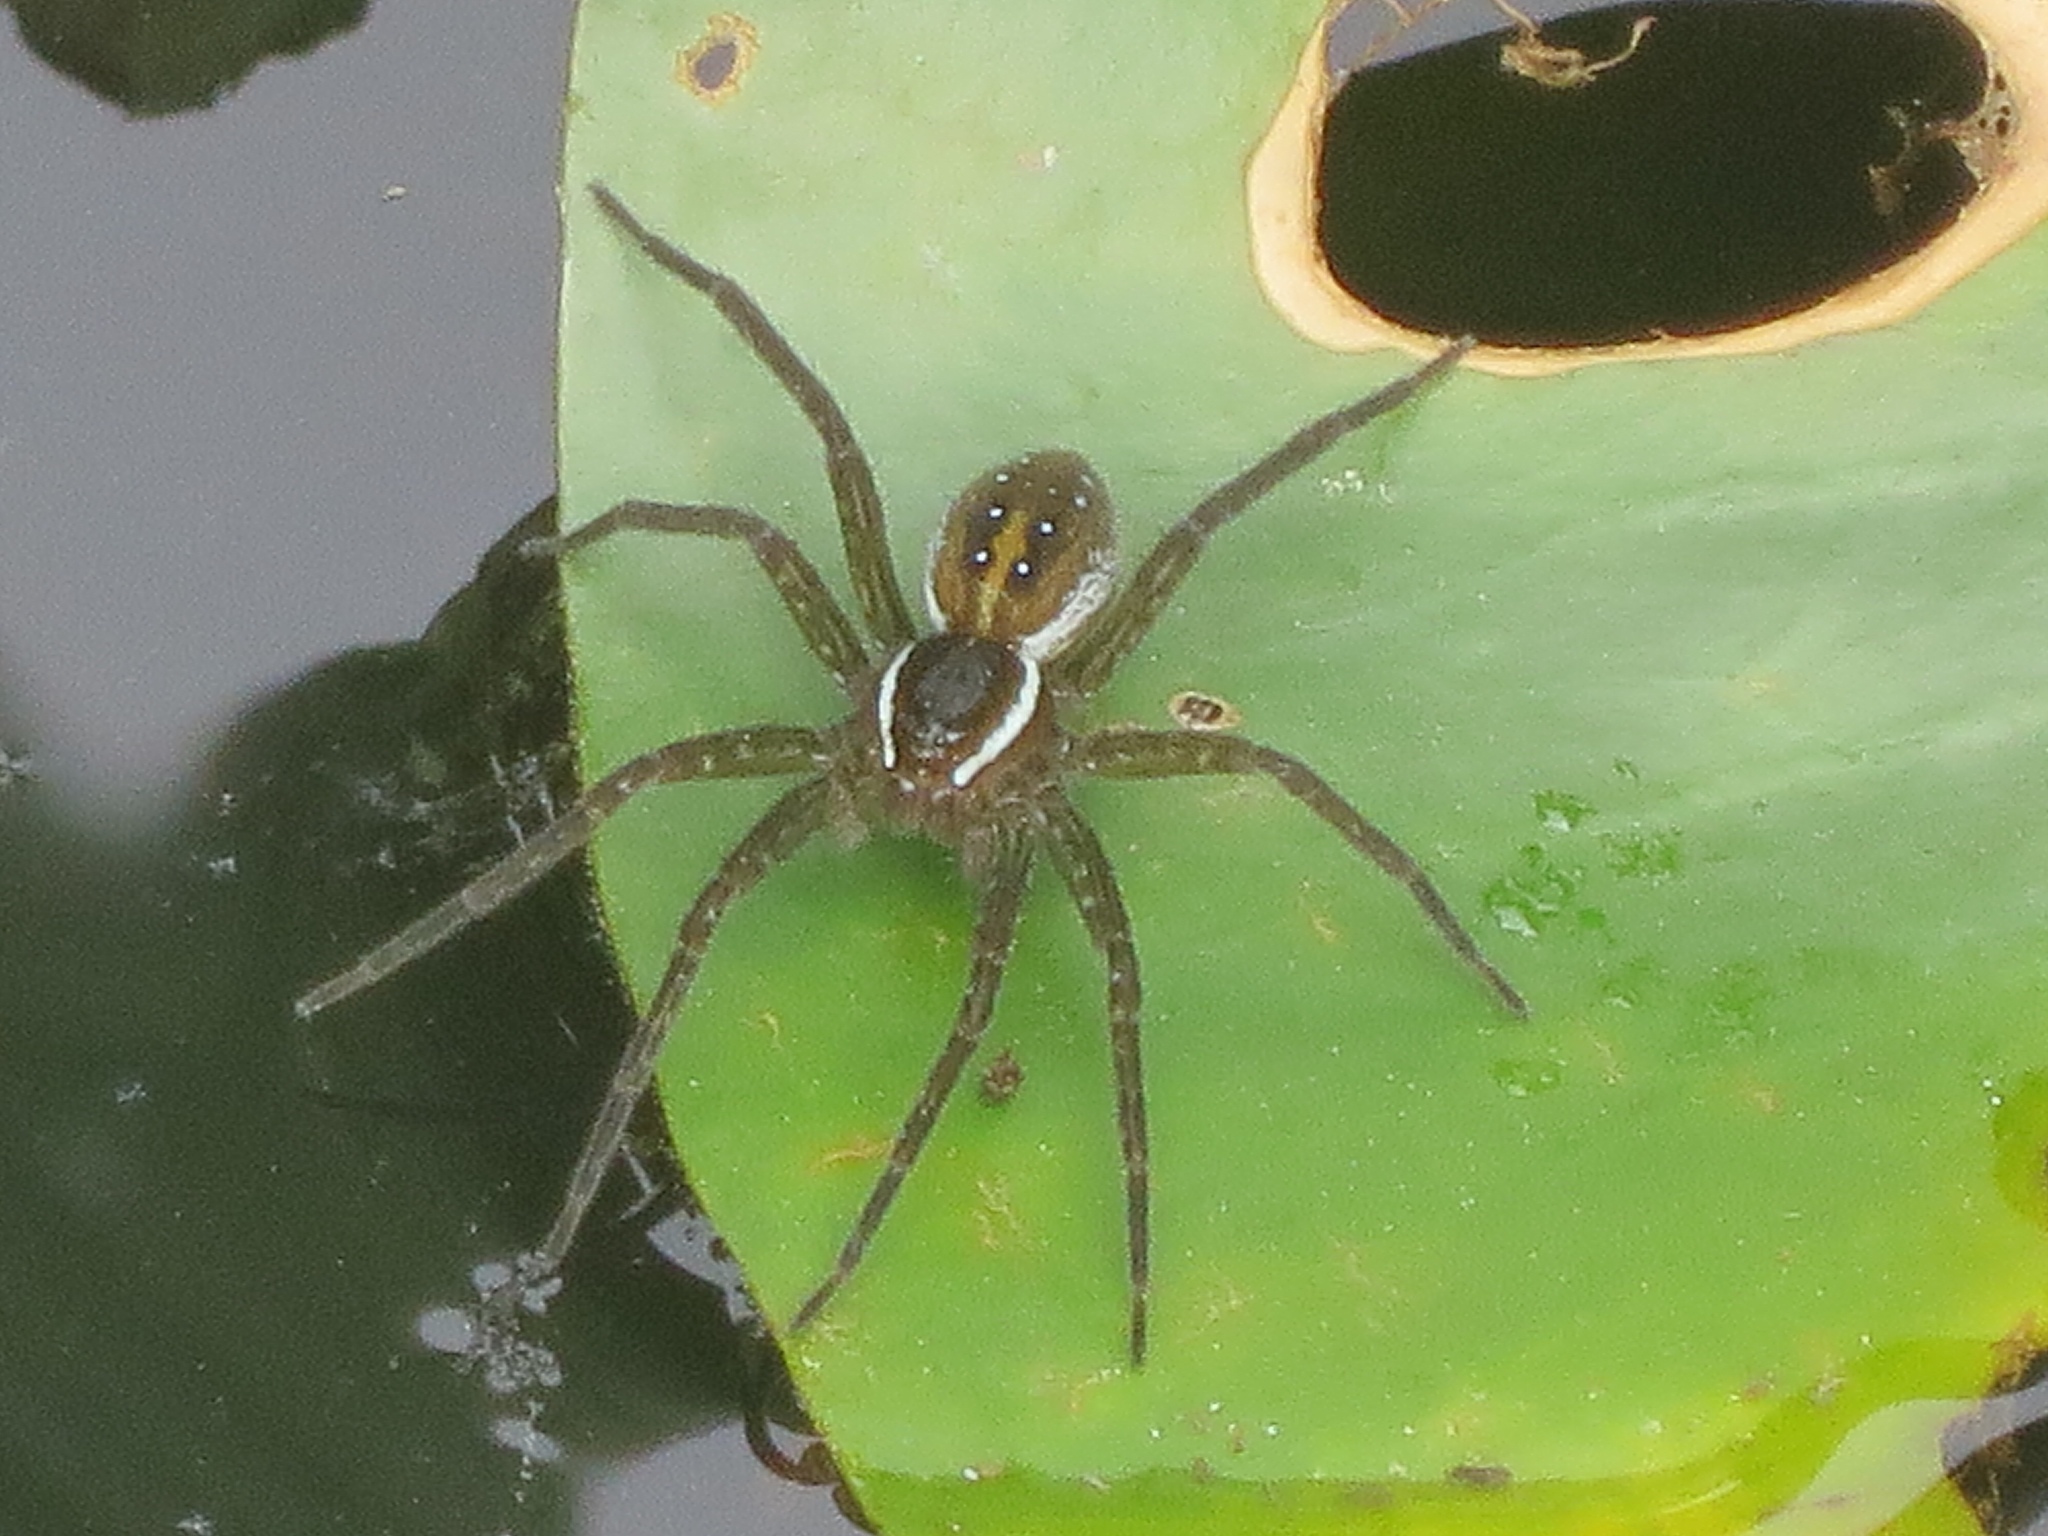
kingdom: Animalia
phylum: Arthropoda
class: Arachnida
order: Araneae
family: Pisauridae
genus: Dolomedes
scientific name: Dolomedes triton
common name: Six-spotted fishing spider
